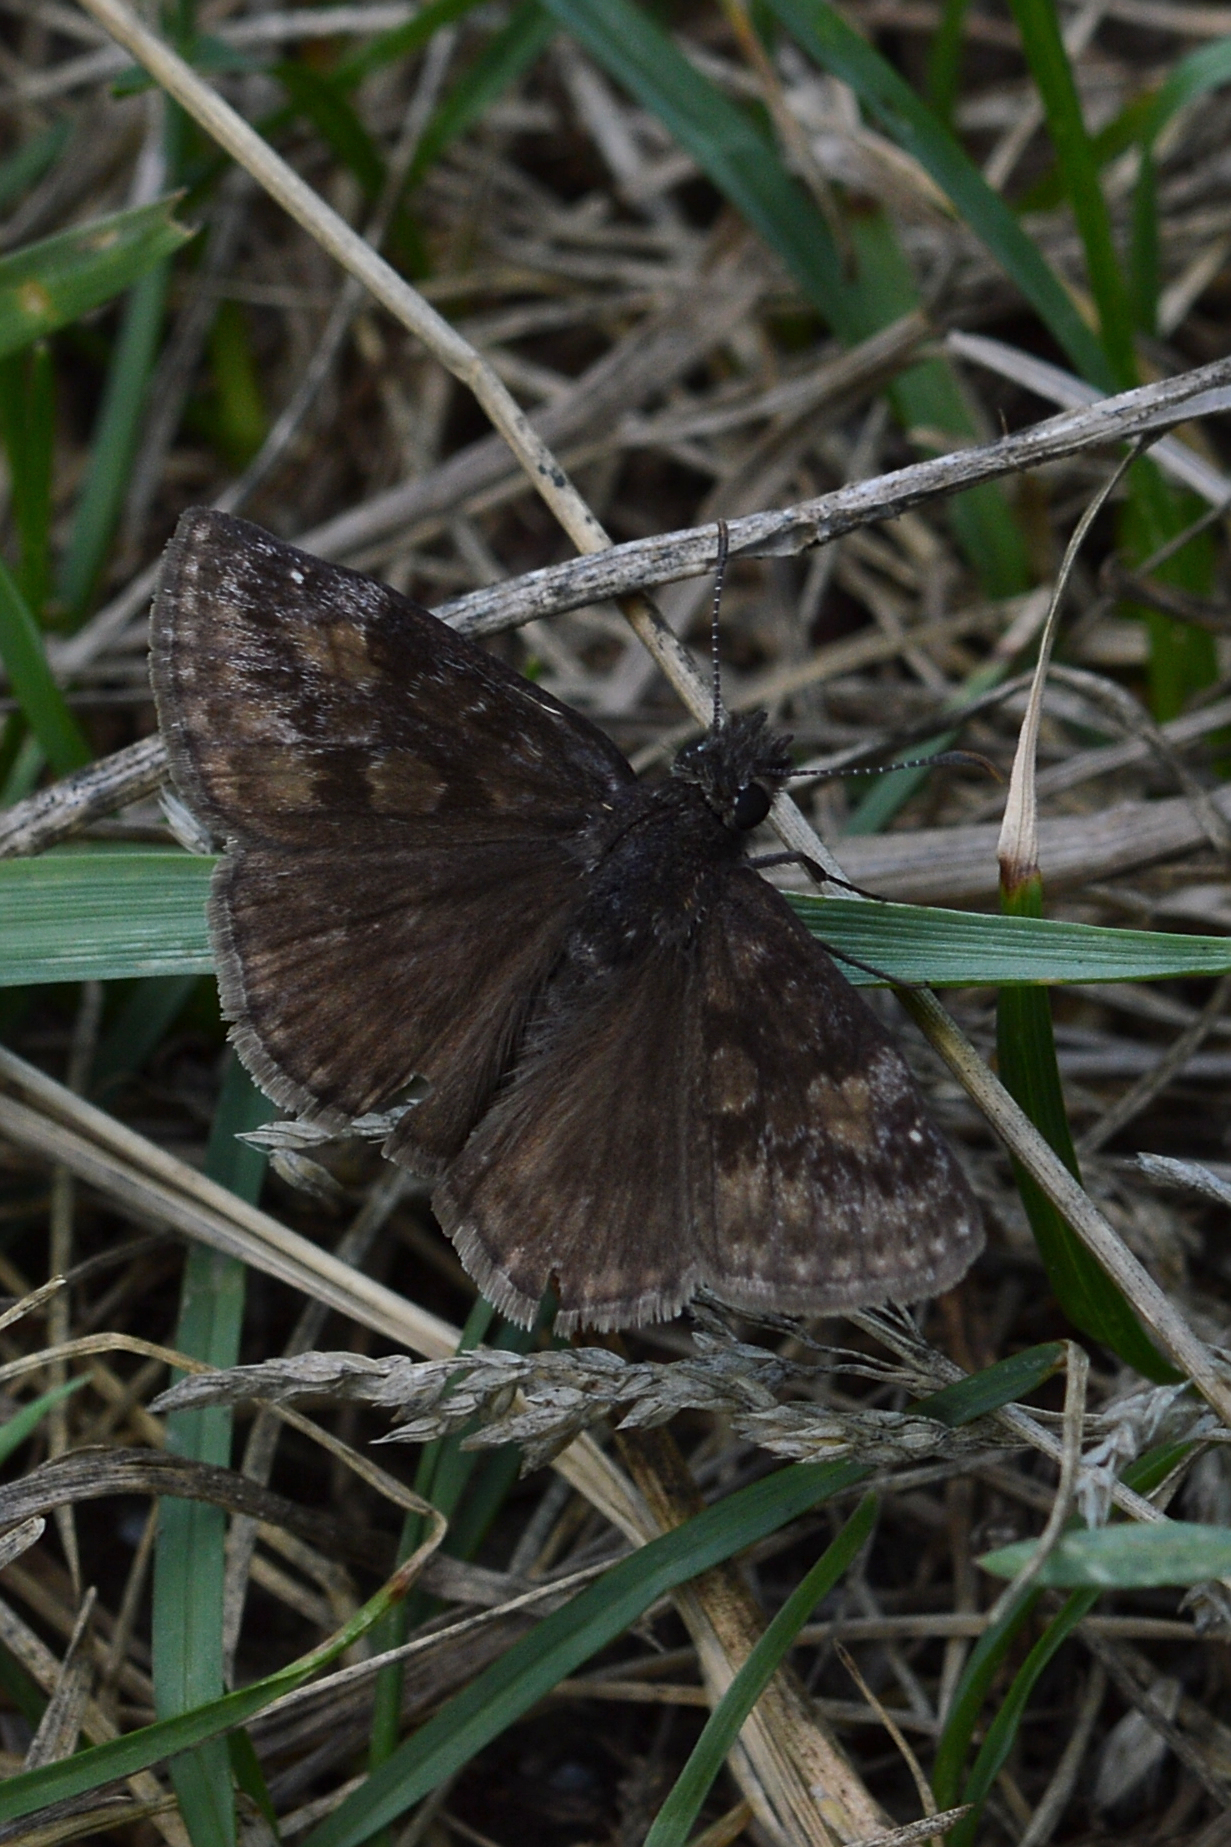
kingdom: Animalia
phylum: Arthropoda
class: Insecta
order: Lepidoptera
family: Hesperiidae
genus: Erynnis
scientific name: Erynnis baptisiae
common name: Wild indigo duskywing
